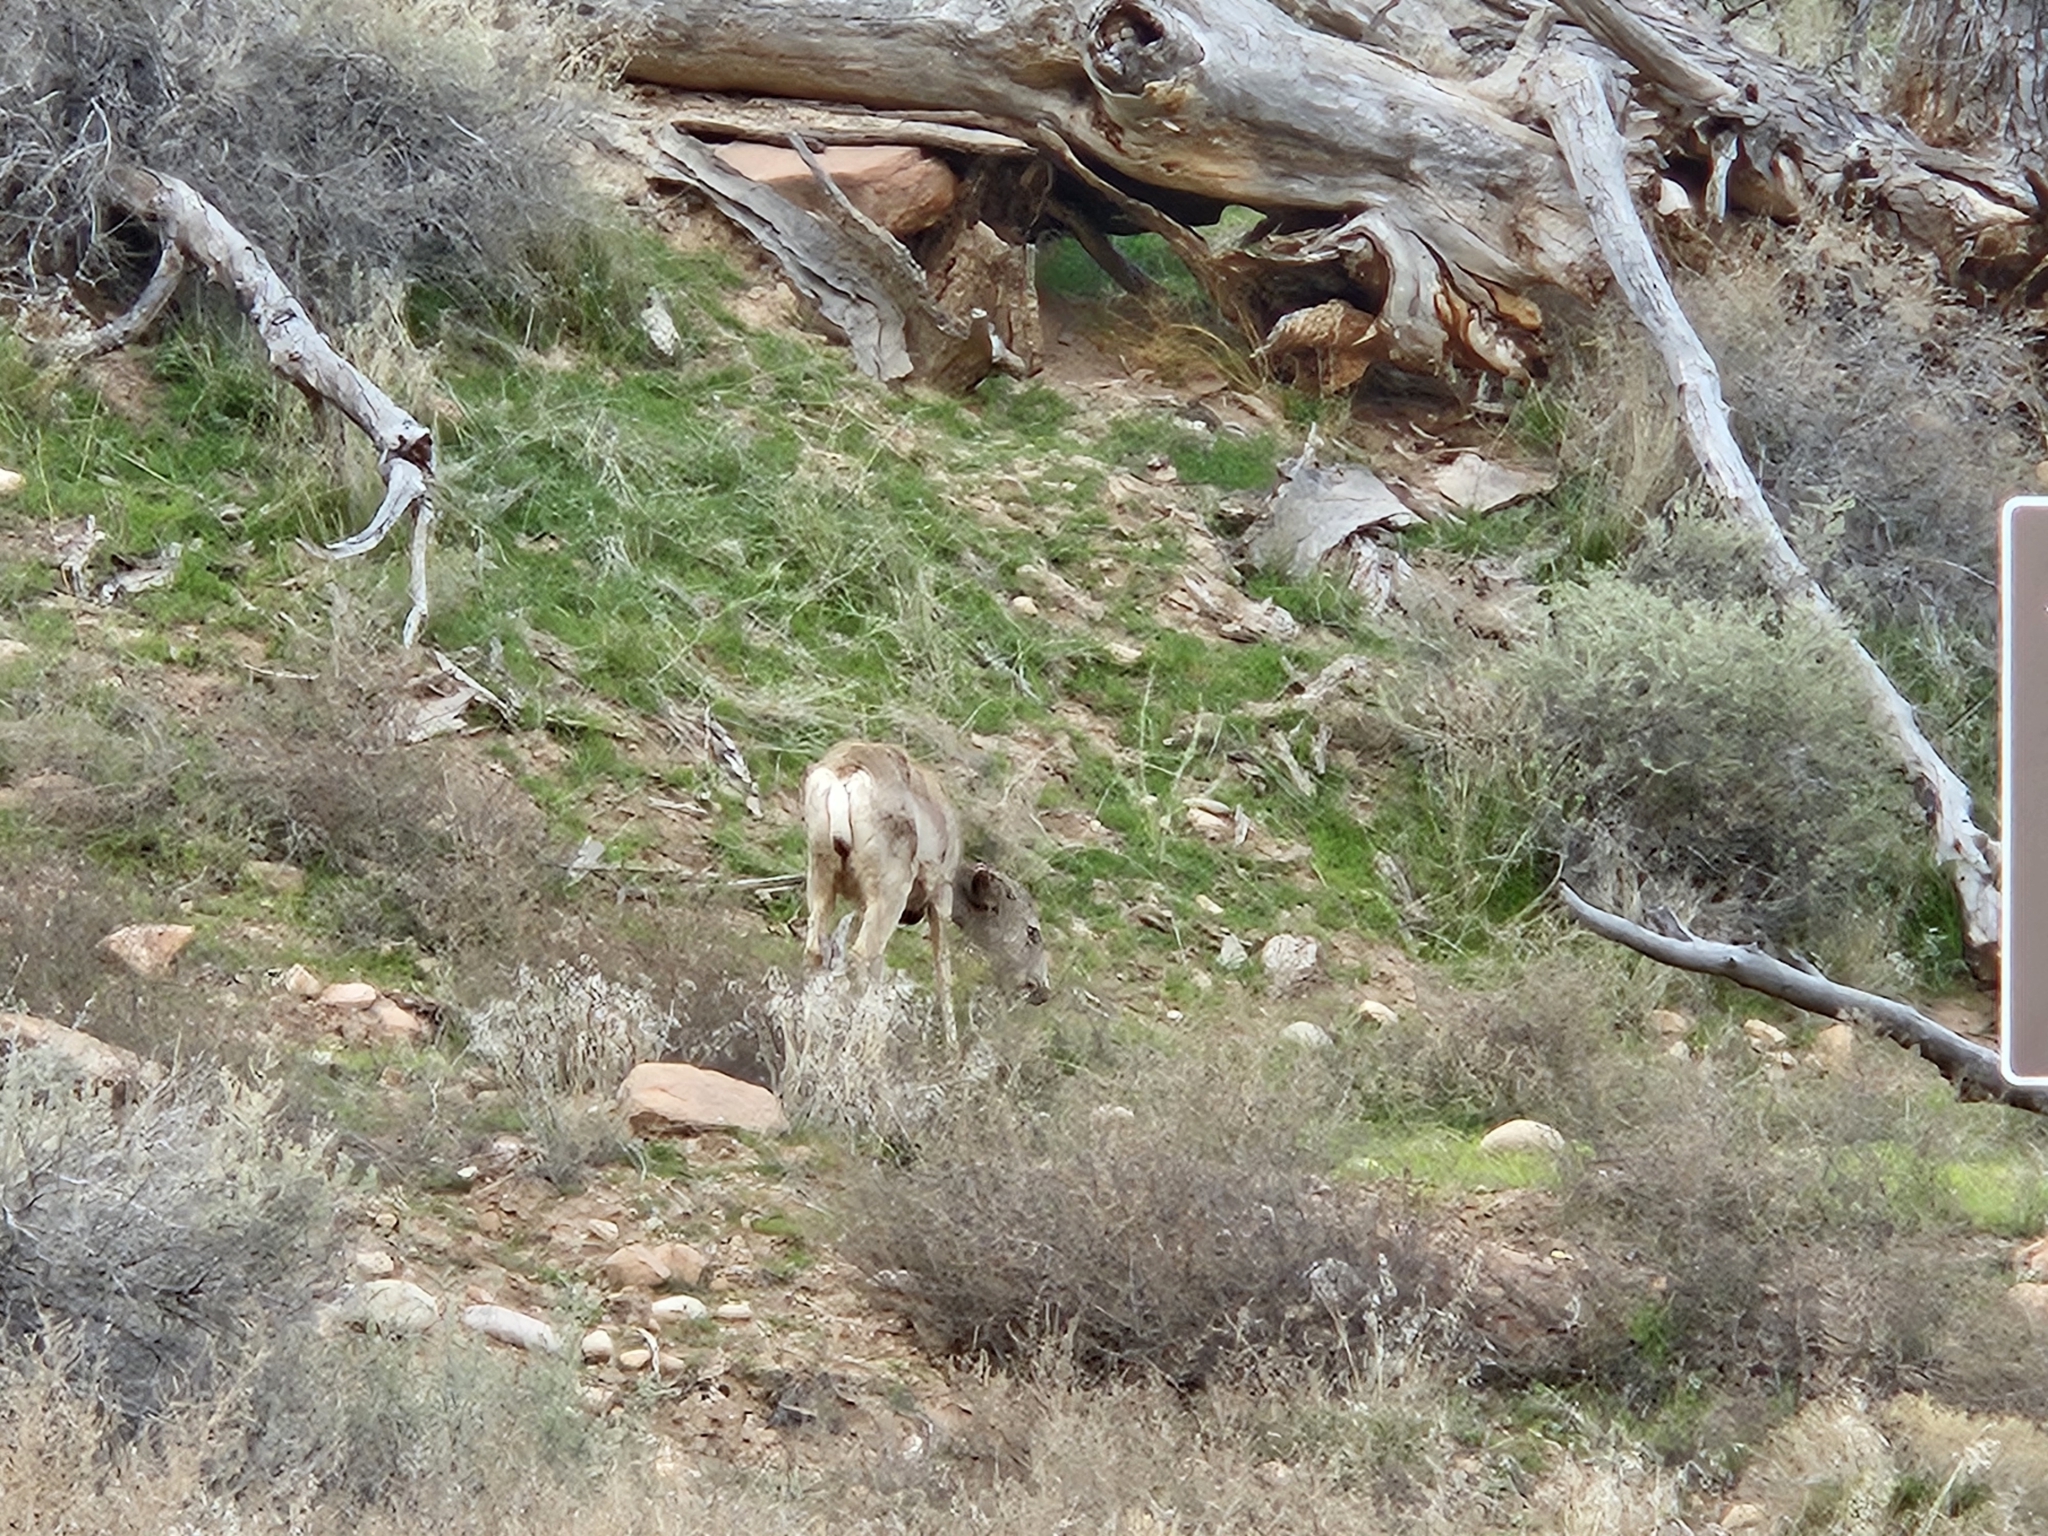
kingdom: Animalia
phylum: Chordata
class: Mammalia
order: Artiodactyla
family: Cervidae
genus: Odocoileus
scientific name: Odocoileus hemionus
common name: Mule deer
